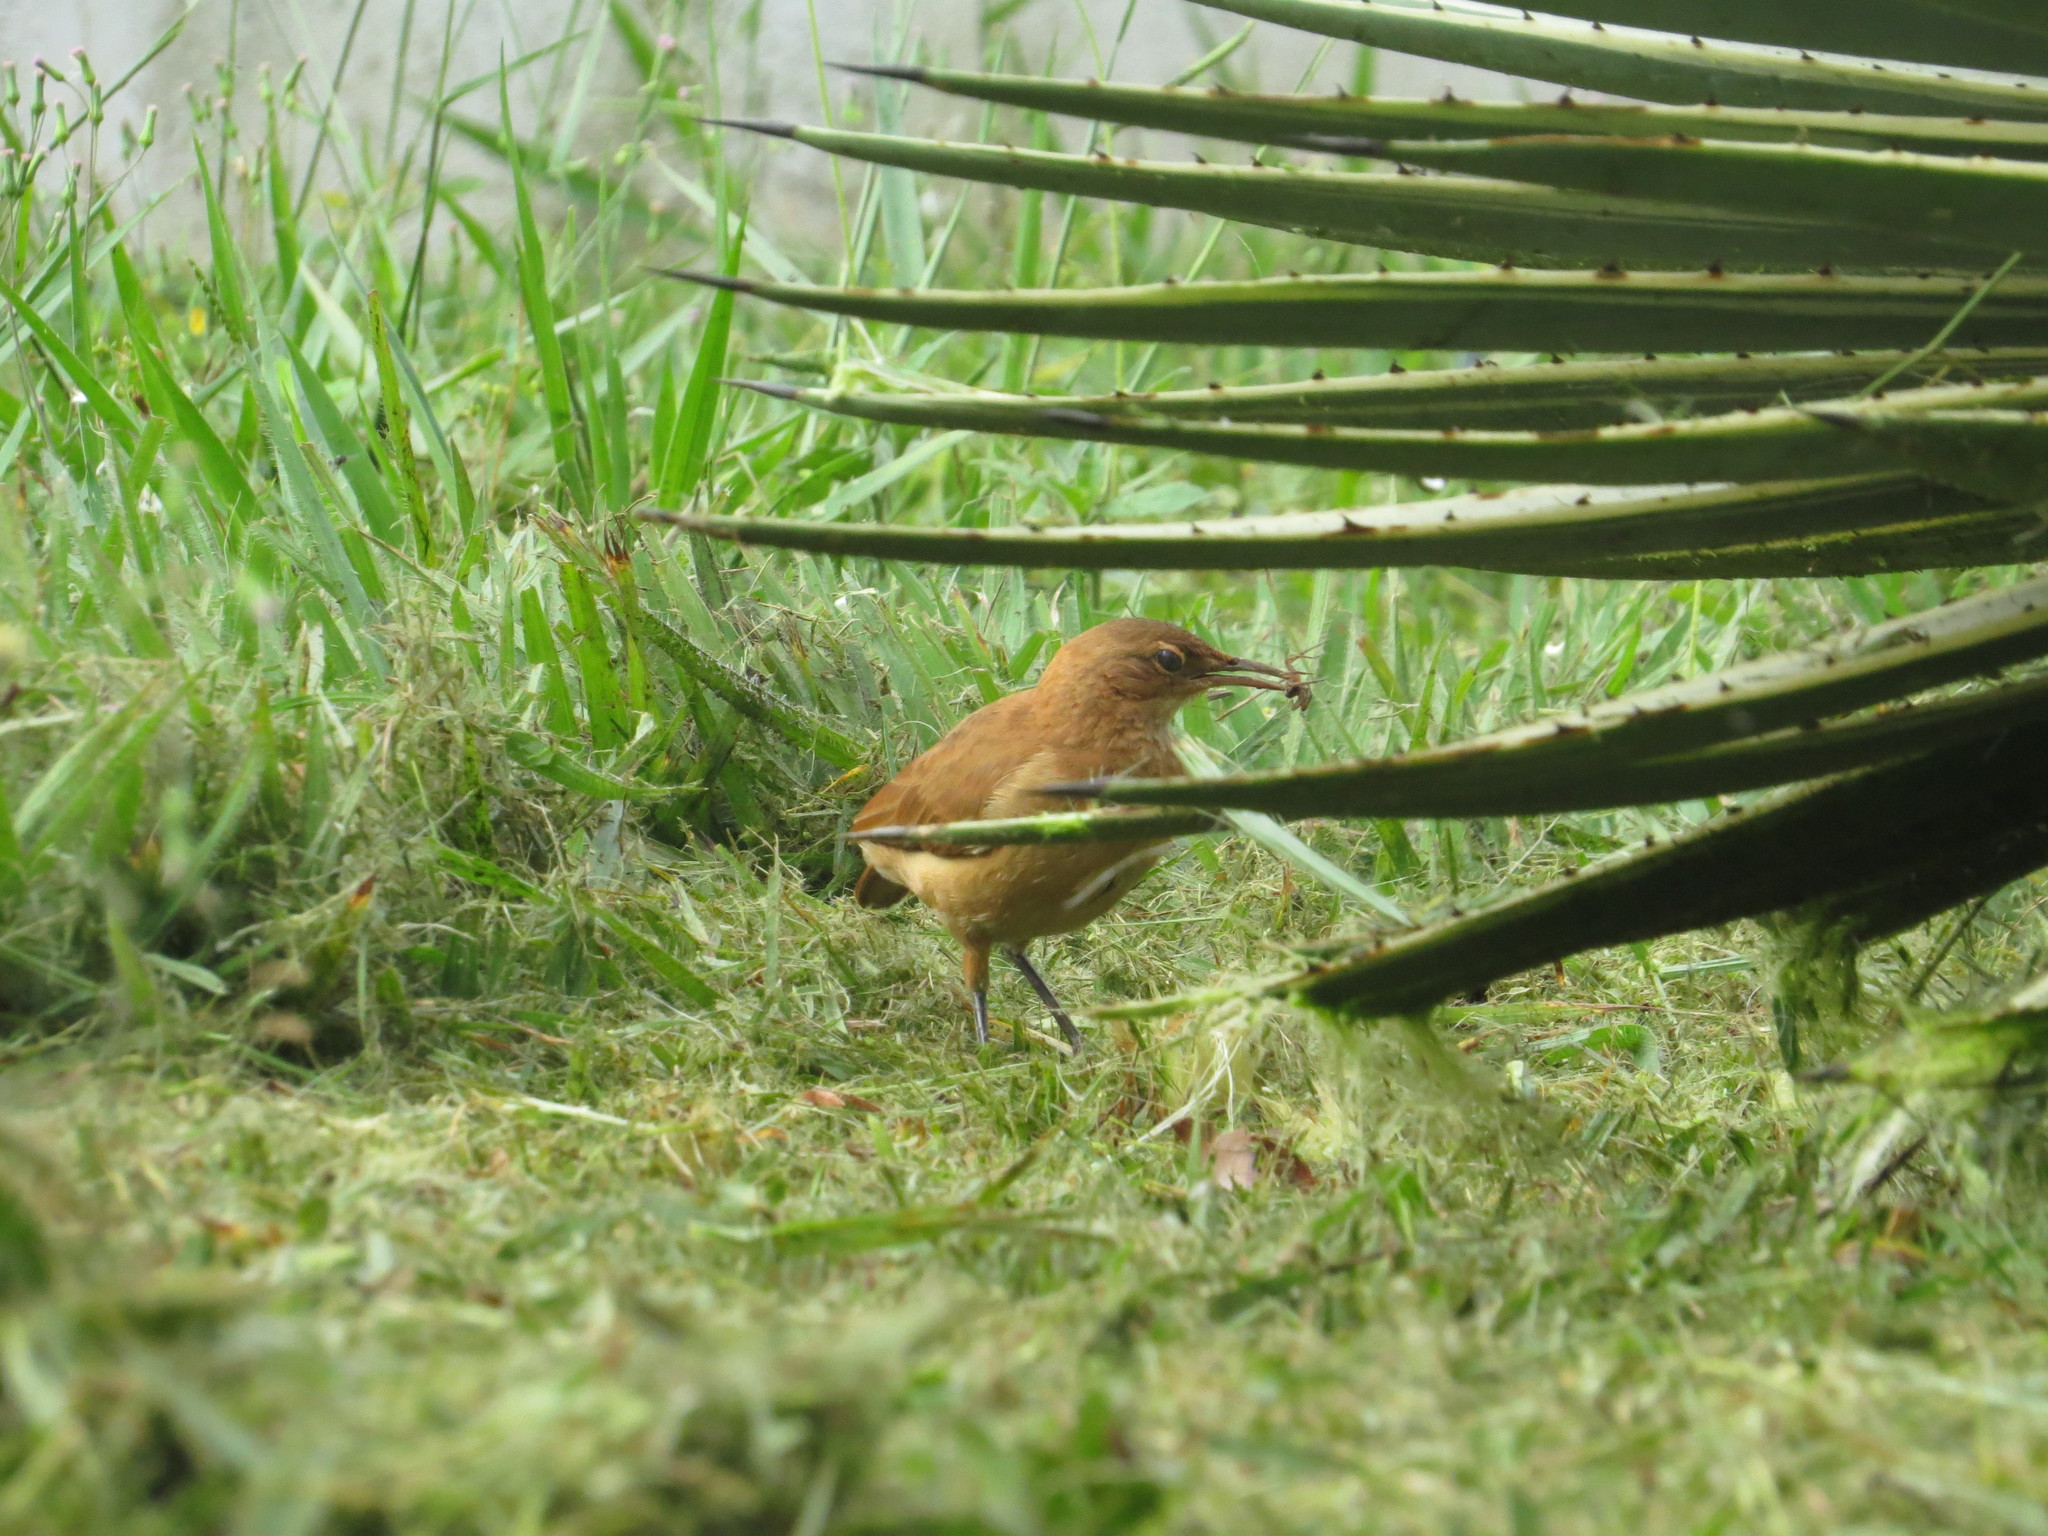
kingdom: Animalia
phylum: Chordata
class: Aves
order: Passeriformes
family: Furnariidae
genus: Furnarius
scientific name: Furnarius rufus
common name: Rufous hornero
